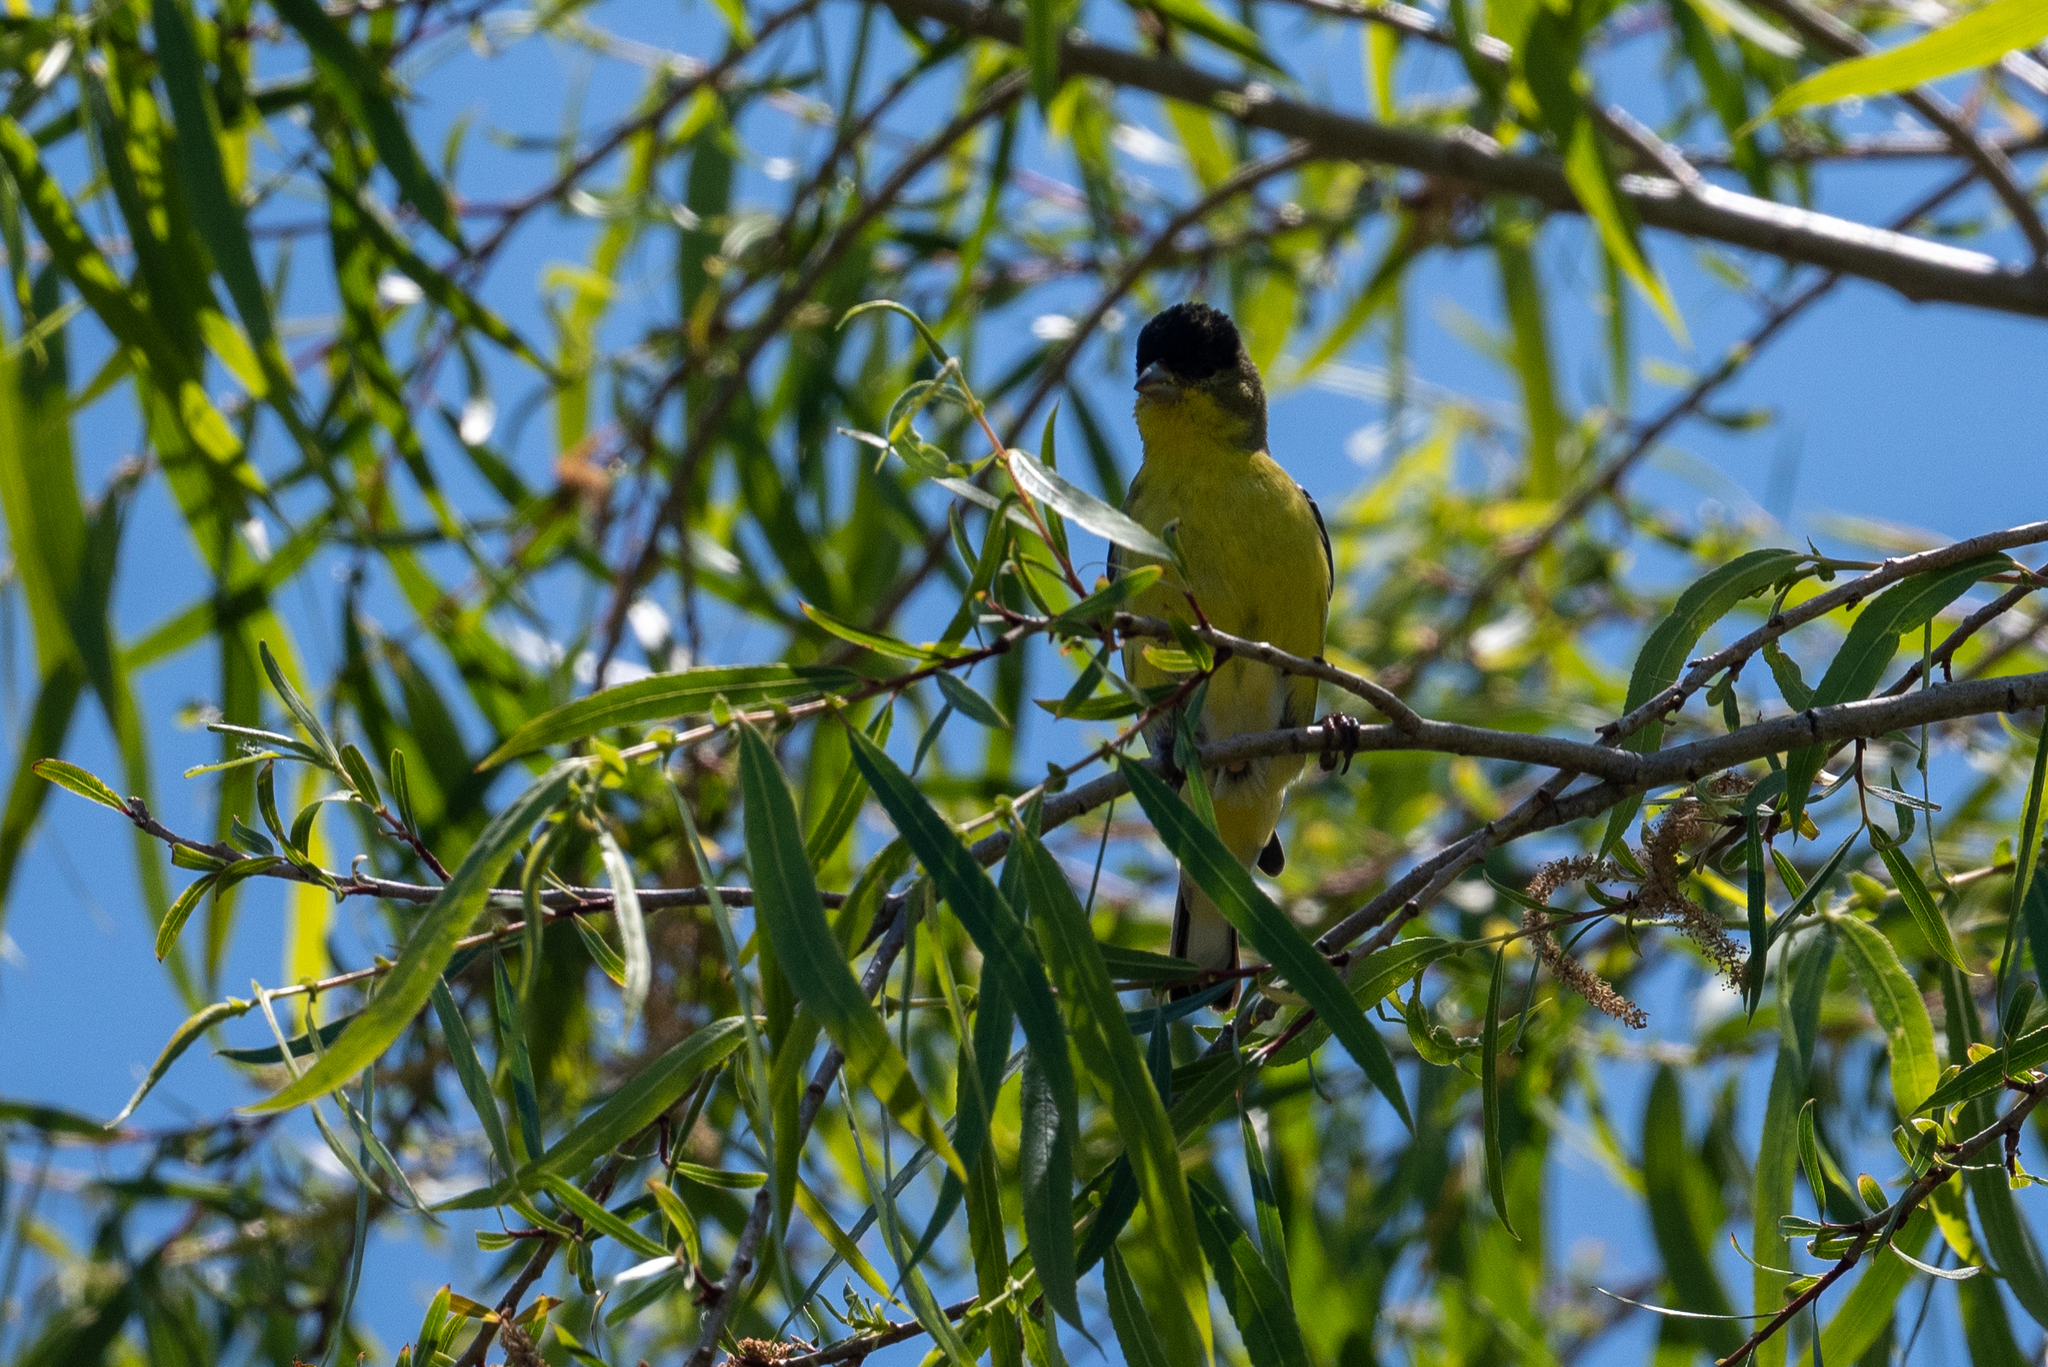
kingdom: Animalia
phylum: Chordata
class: Aves
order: Passeriformes
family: Fringillidae
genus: Spinus
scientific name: Spinus psaltria
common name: Lesser goldfinch
